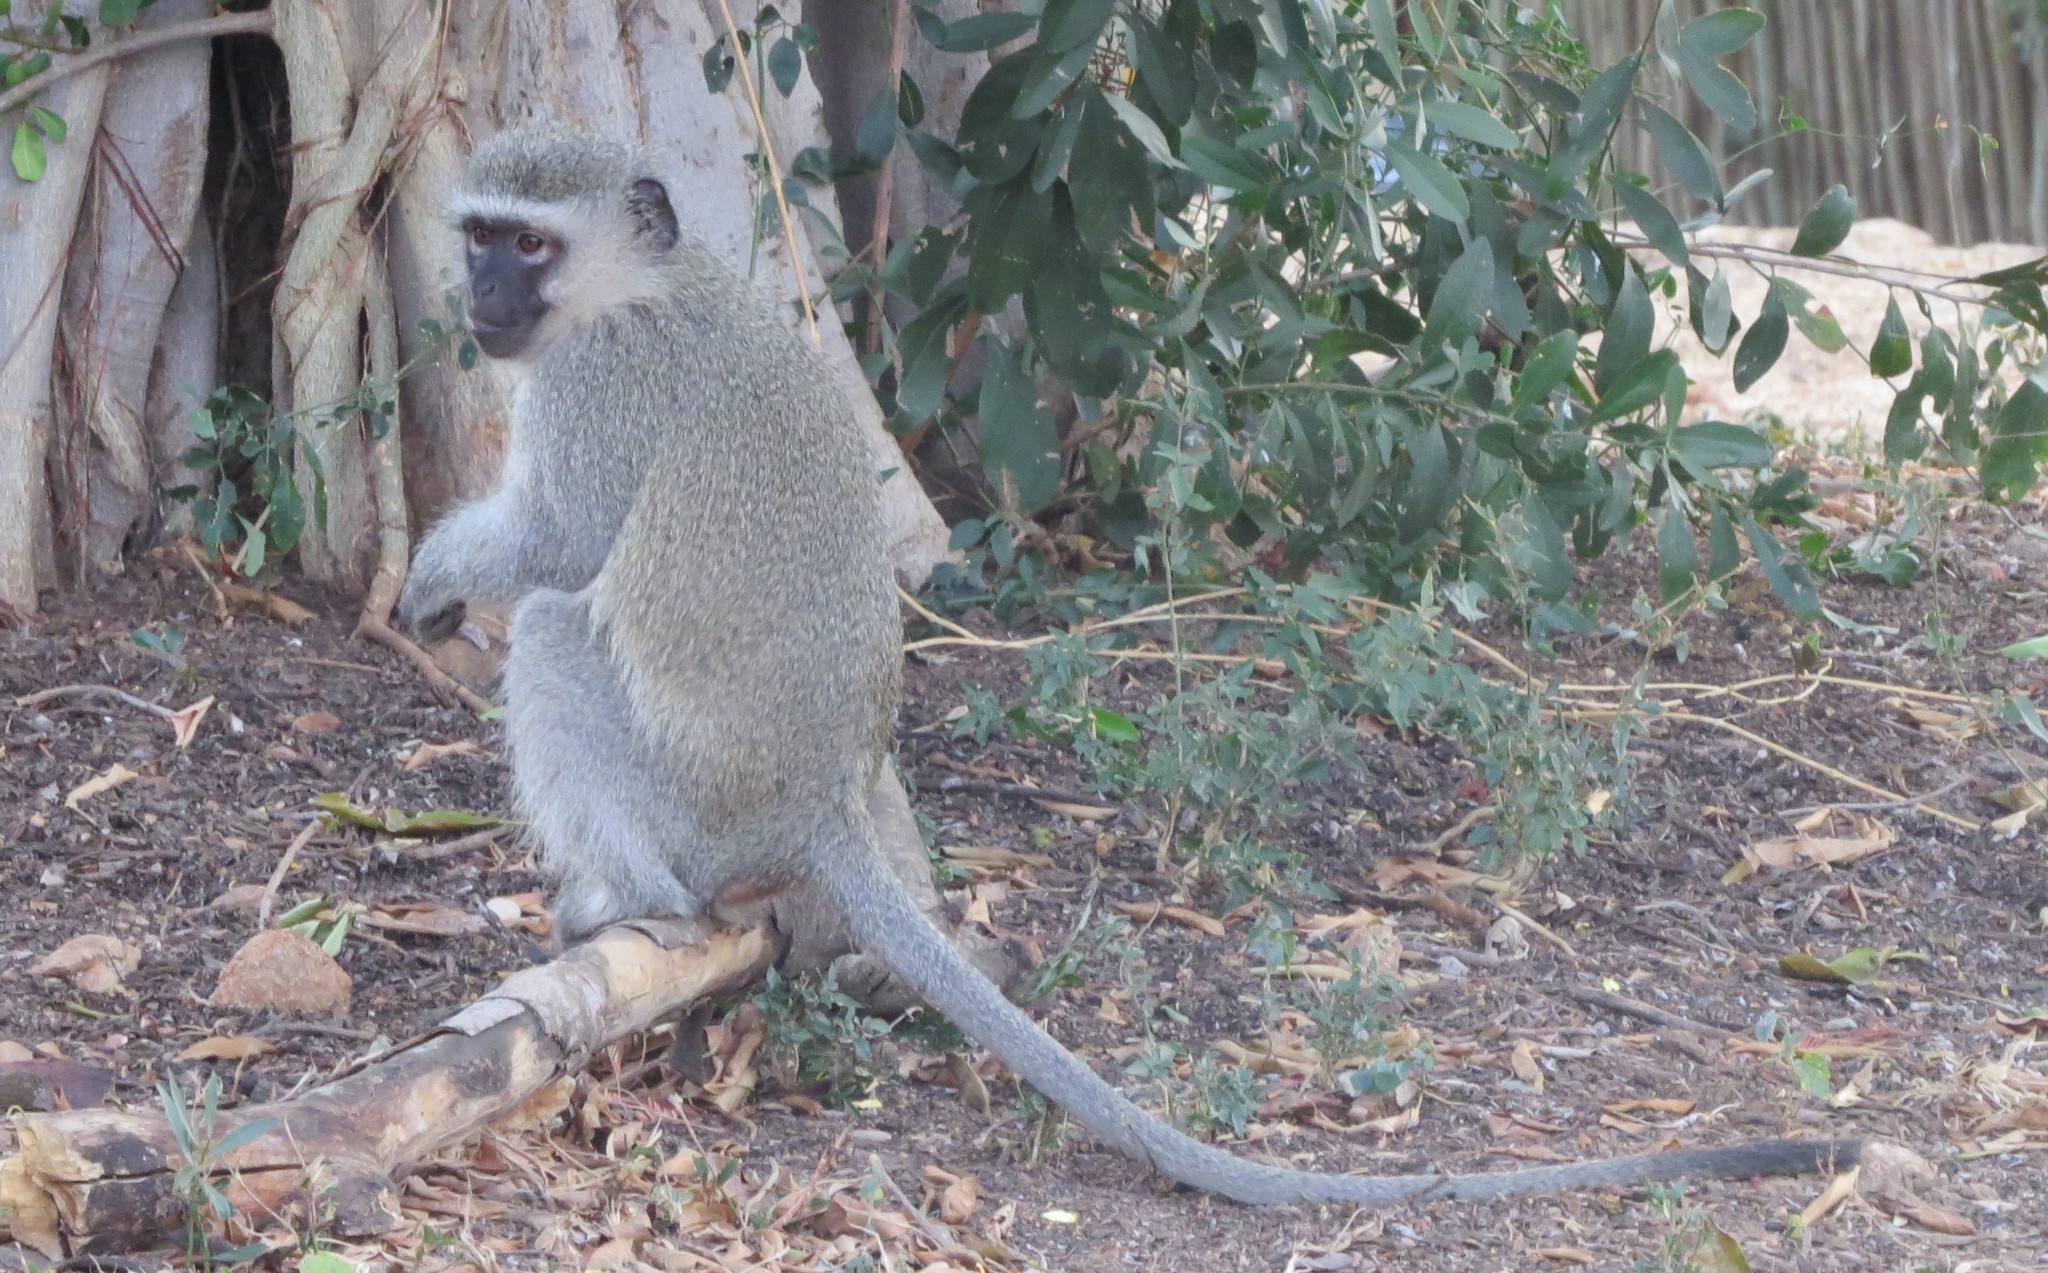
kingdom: Animalia
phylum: Chordata
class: Mammalia
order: Primates
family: Cercopithecidae
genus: Chlorocebus
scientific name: Chlorocebus pygerythrus
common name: Vervet monkey
